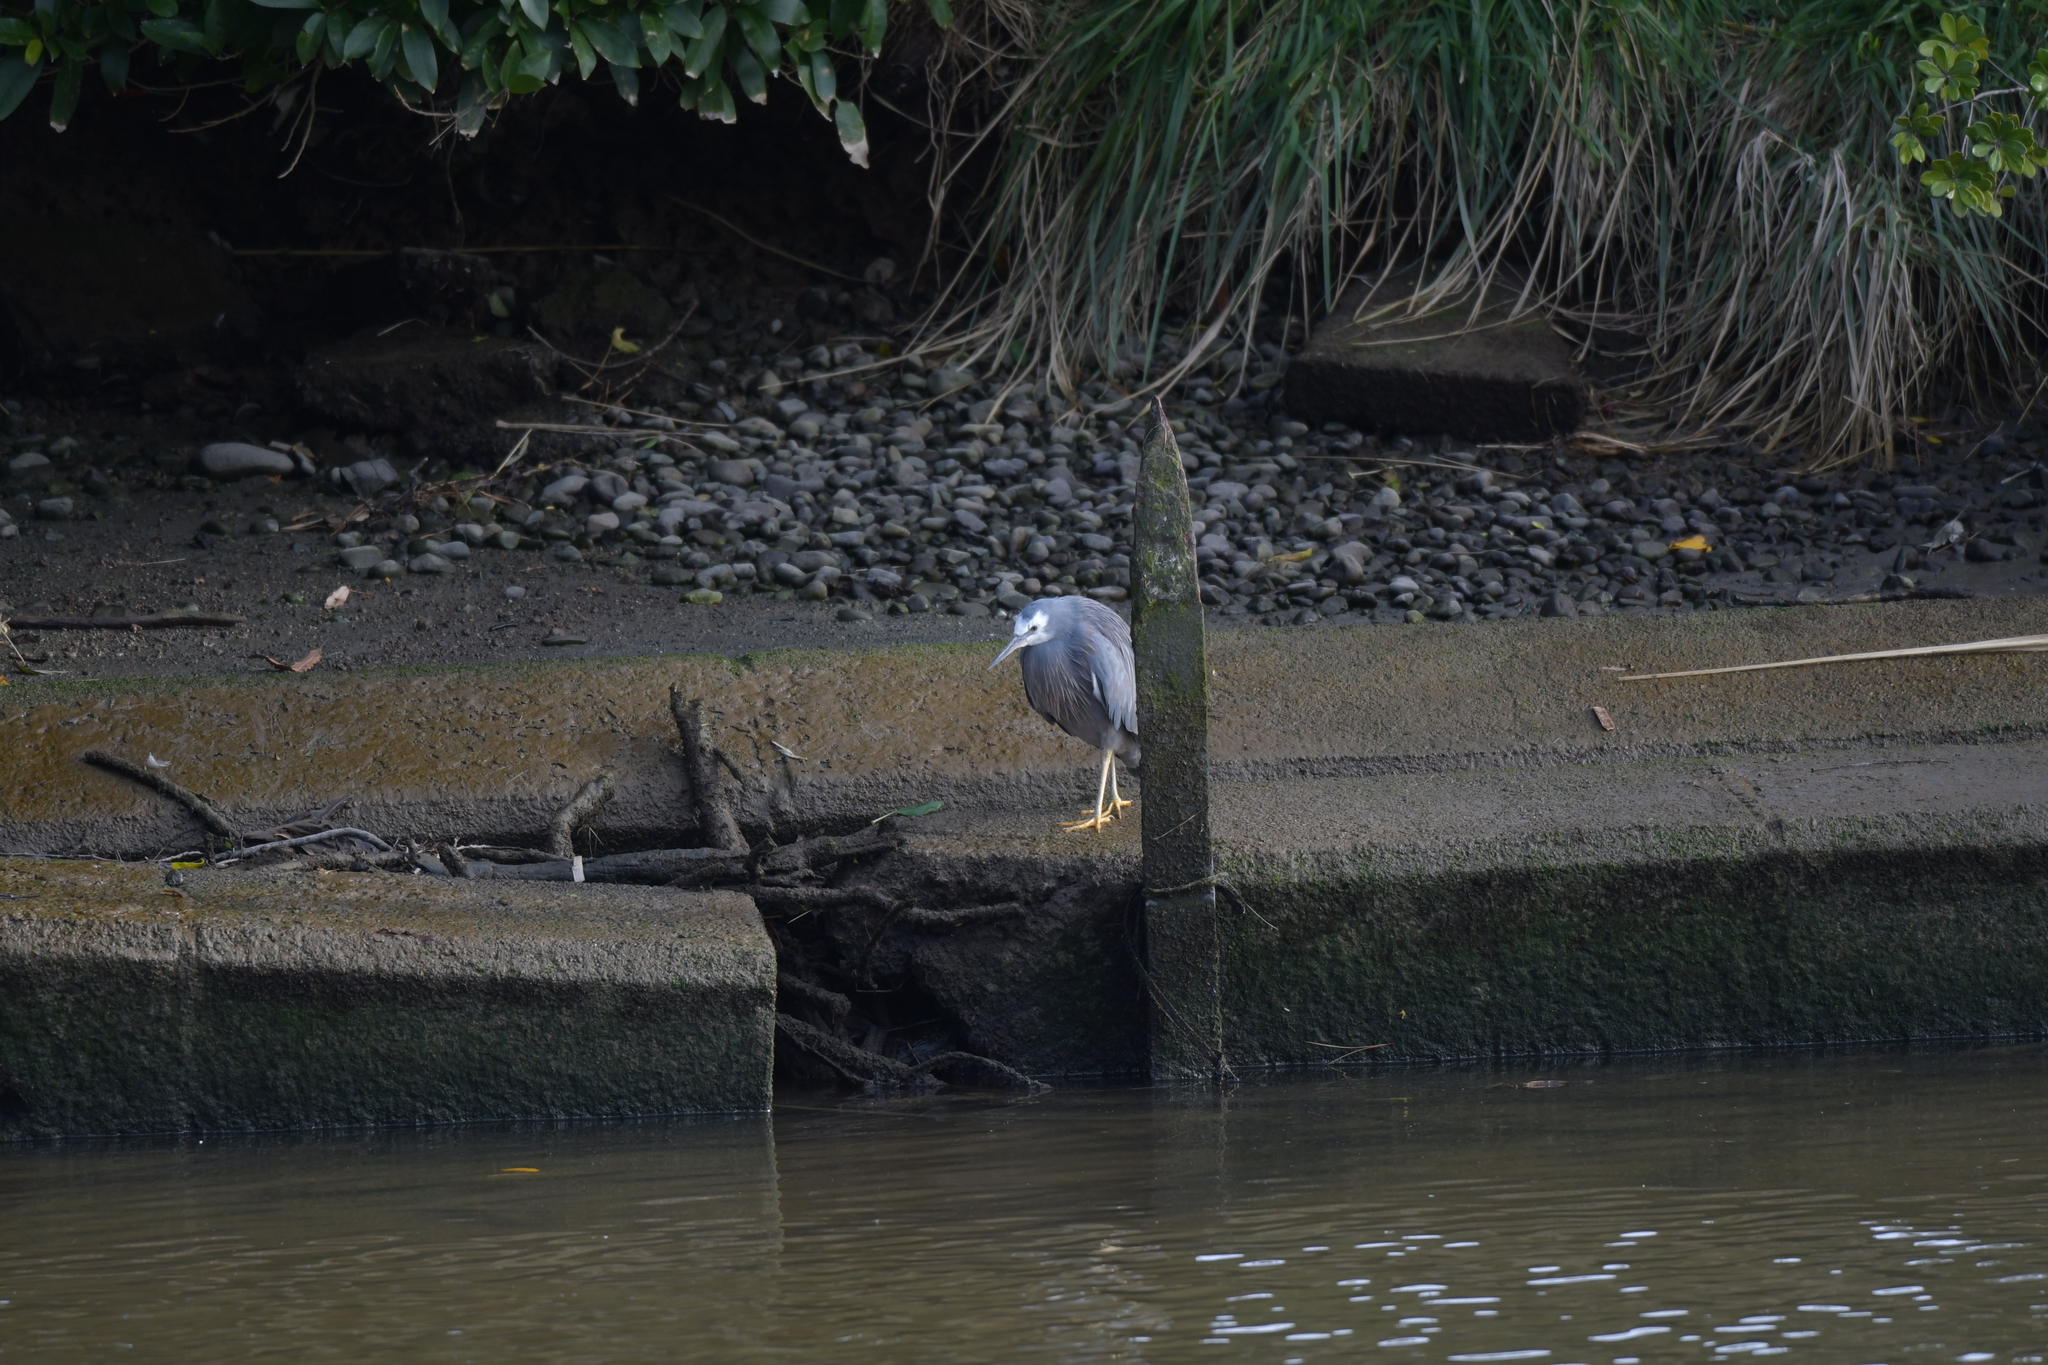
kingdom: Animalia
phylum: Chordata
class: Aves
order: Pelecaniformes
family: Ardeidae
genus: Egretta
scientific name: Egretta novaehollandiae
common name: White-faced heron
